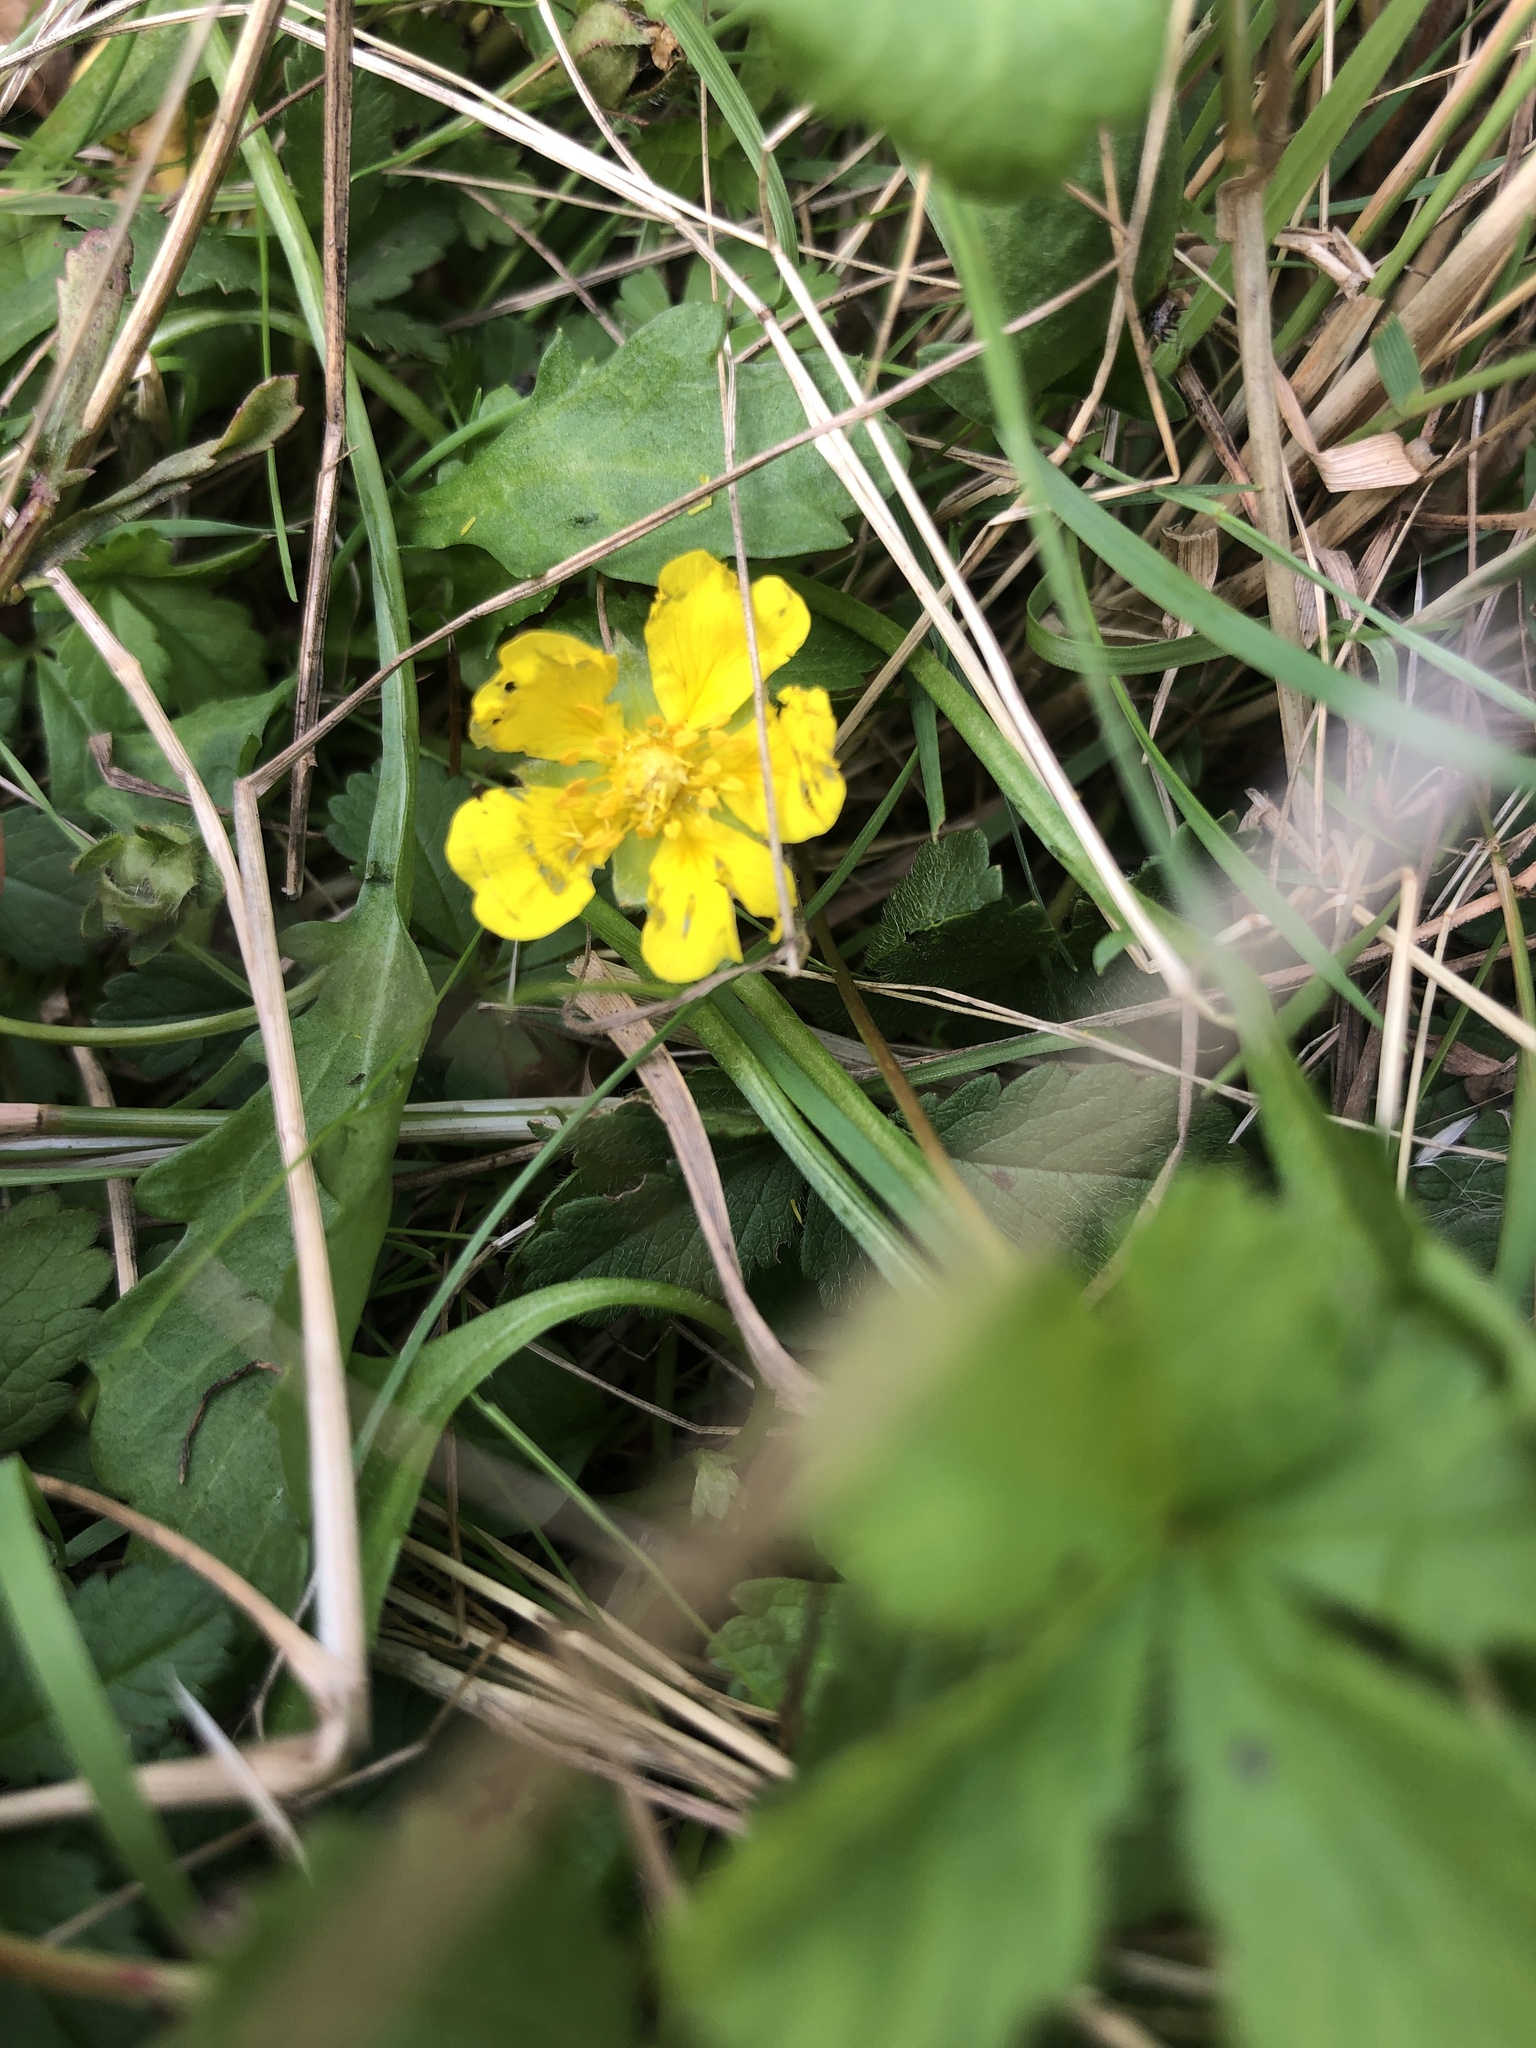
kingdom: Plantae
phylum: Tracheophyta
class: Magnoliopsida
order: Rosales
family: Rosaceae
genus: Potentilla
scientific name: Potentilla reptans
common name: Creeping cinquefoil
